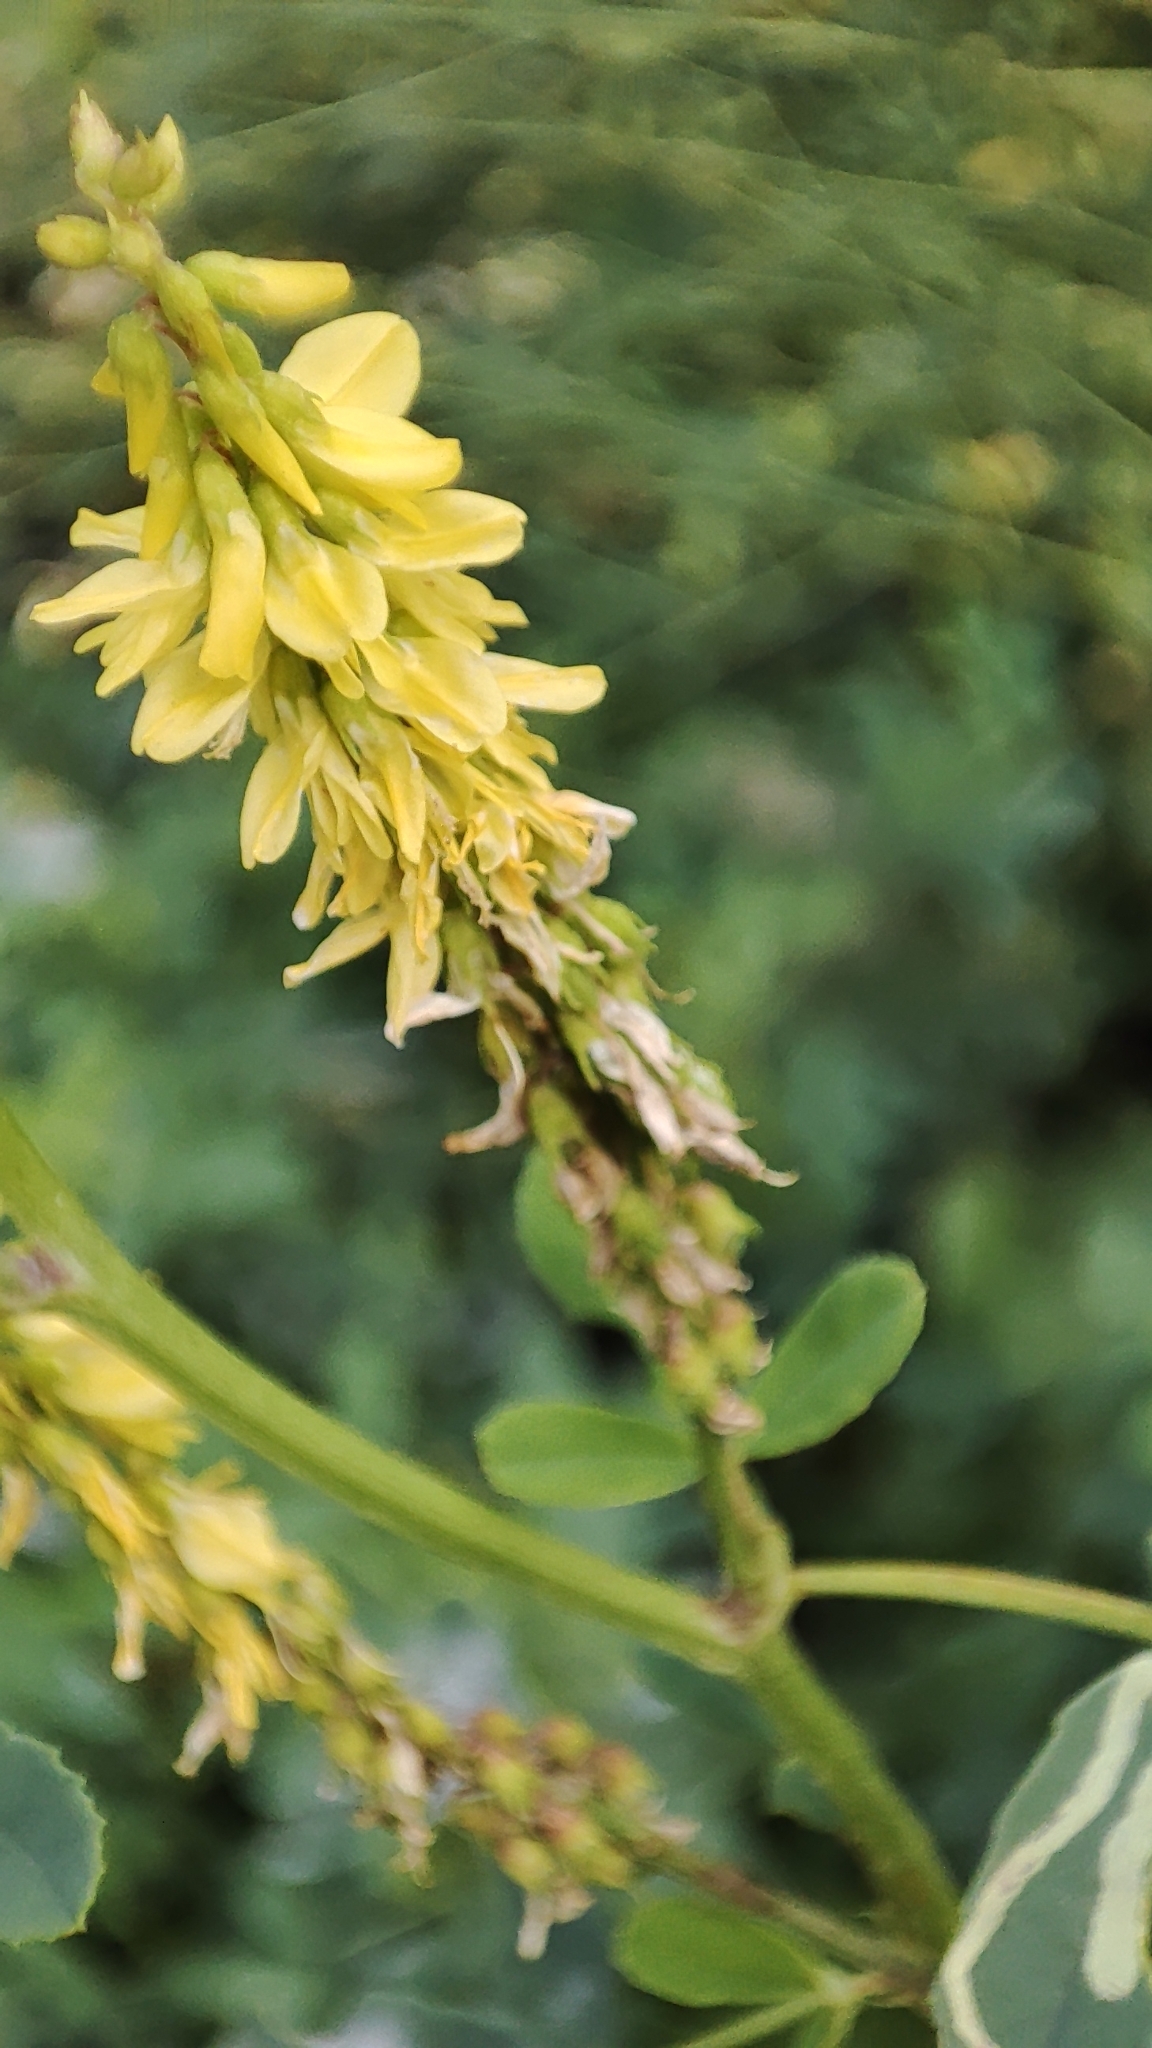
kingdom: Plantae
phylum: Tracheophyta
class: Magnoliopsida
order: Fabales
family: Fabaceae
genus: Melilotus
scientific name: Melilotus officinalis
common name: Sweetclover
